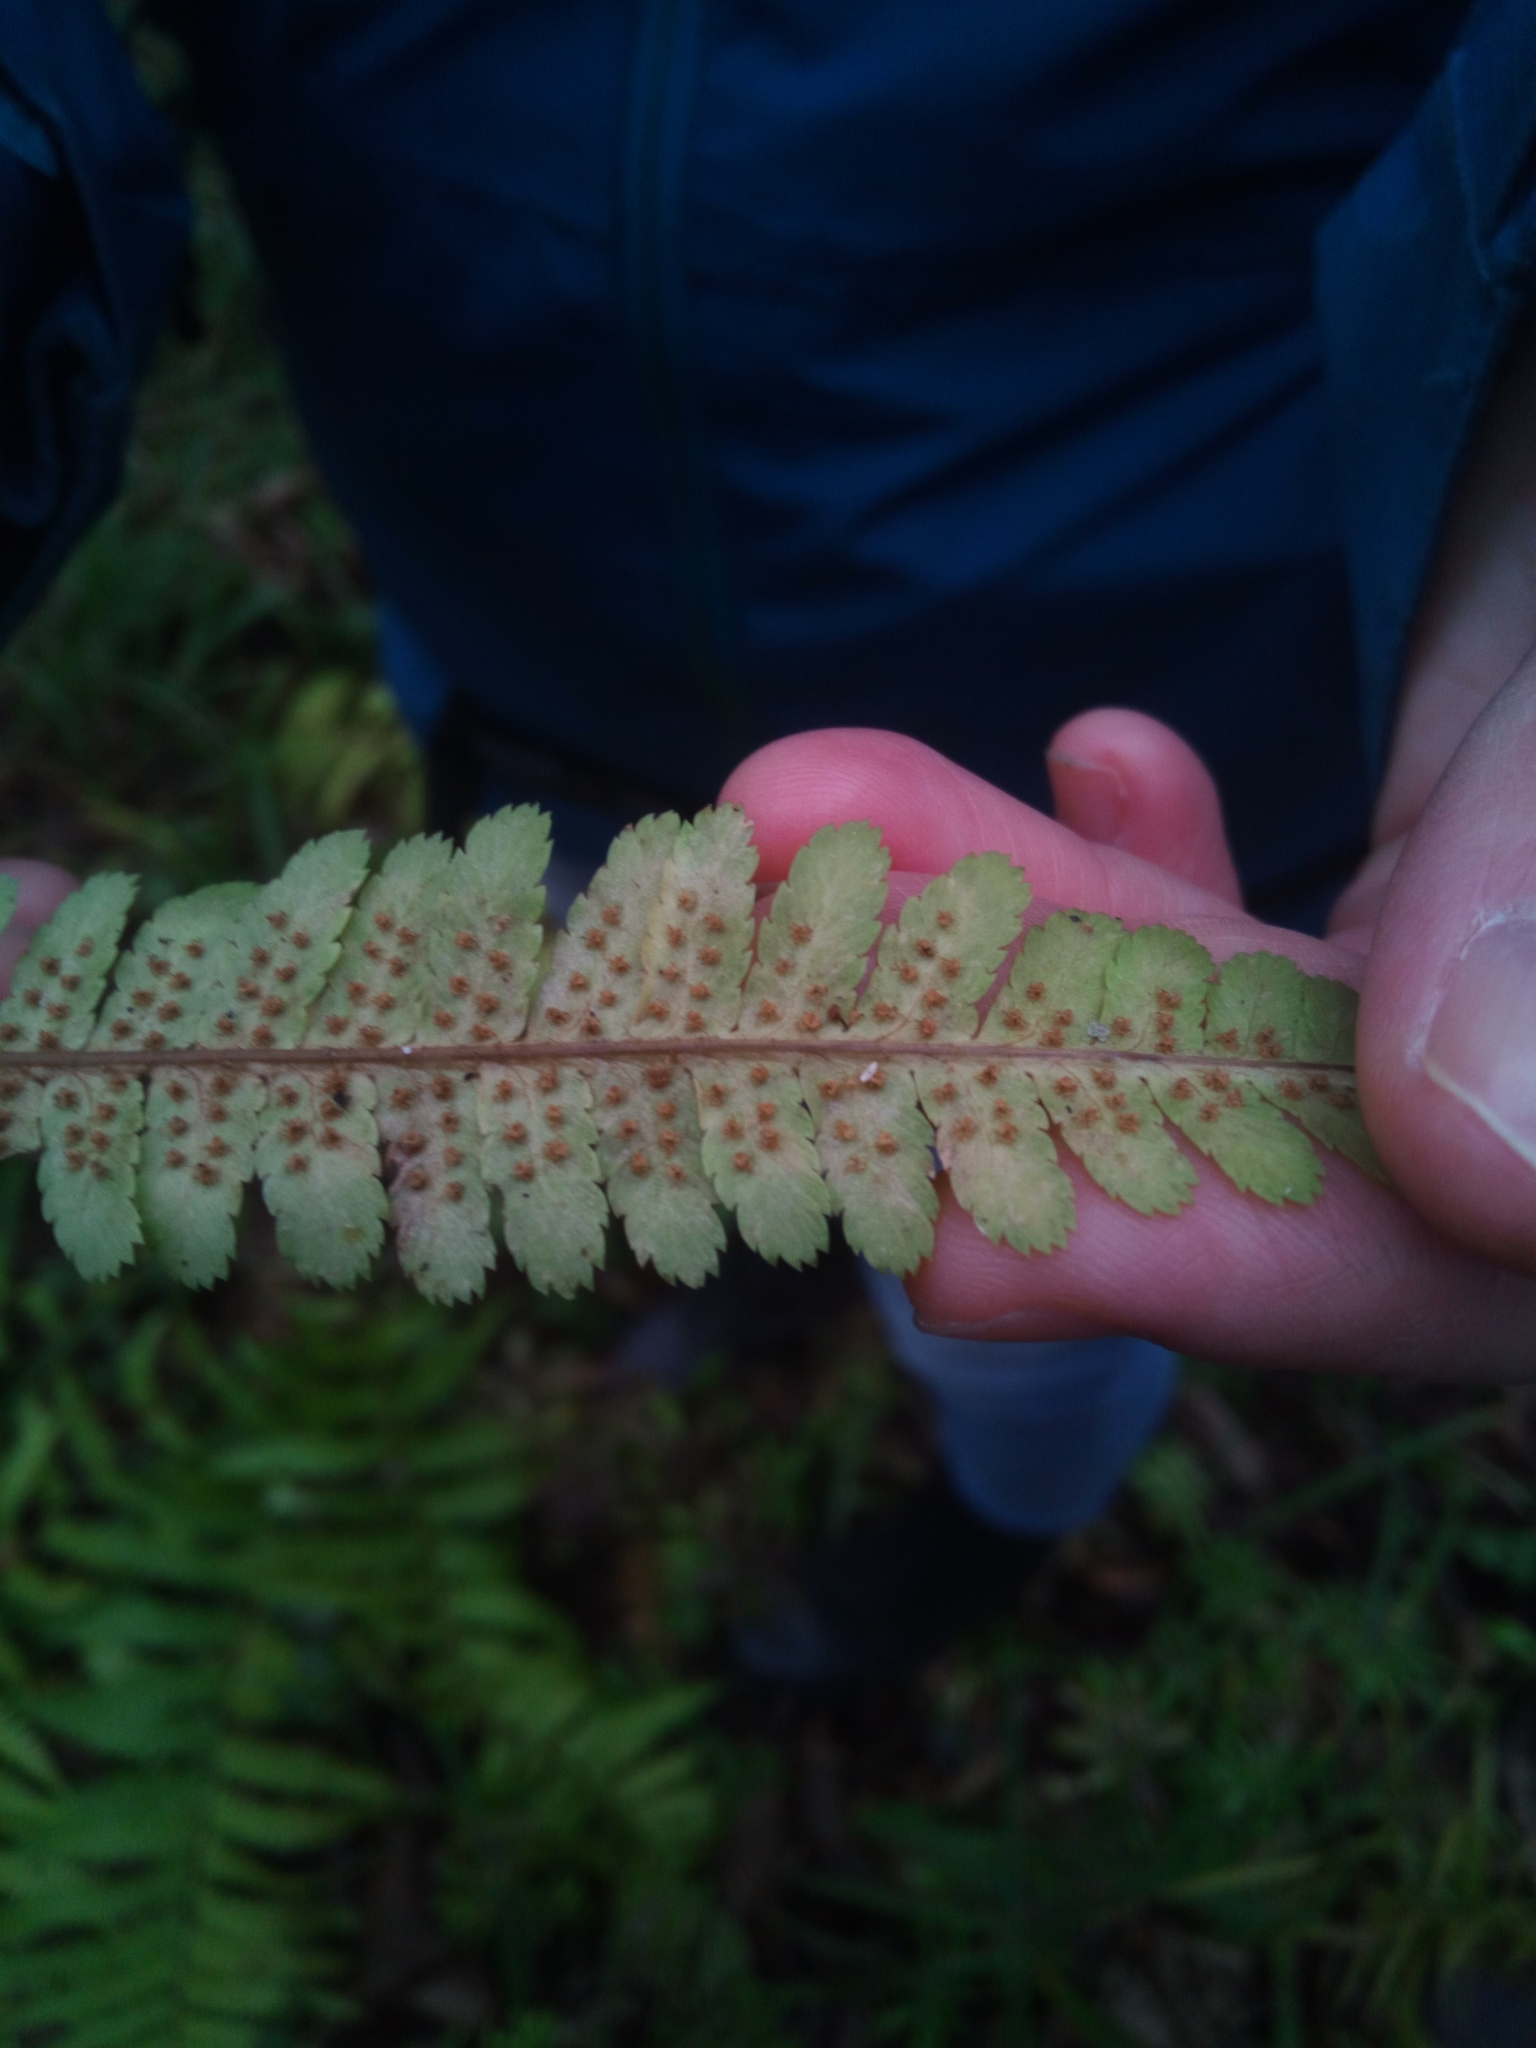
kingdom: Plantae
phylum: Tracheophyta
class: Polypodiopsida
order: Polypodiales
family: Dryopteridaceae
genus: Dryopteris
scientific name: Dryopteris filix-mas
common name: Male fern
